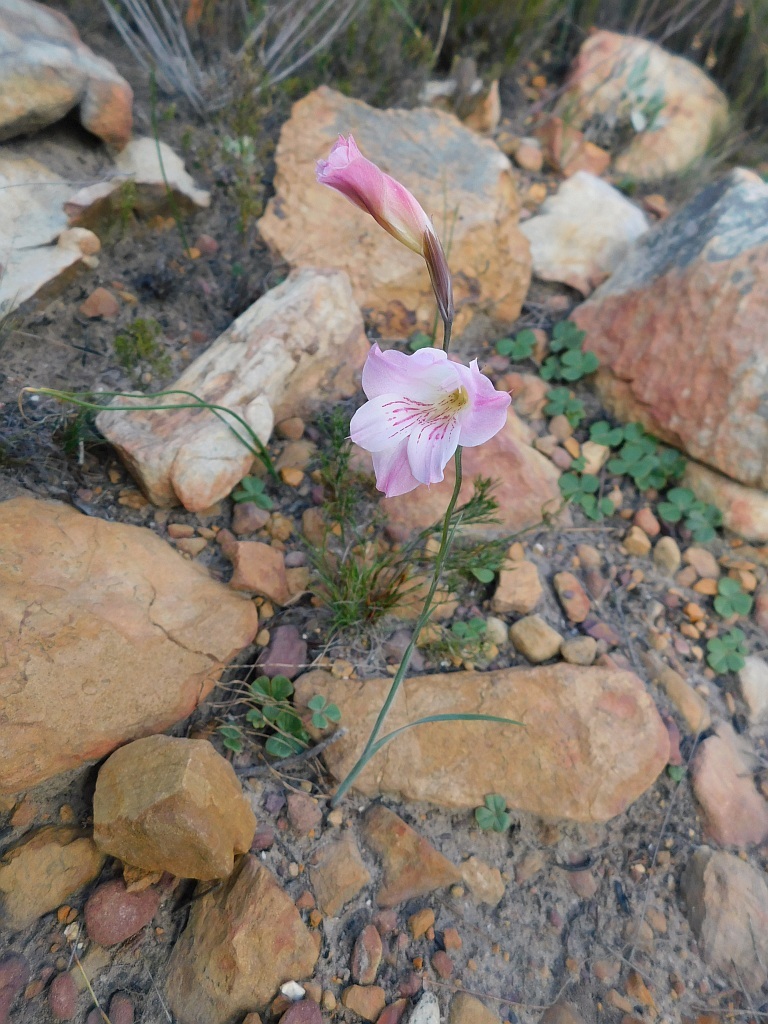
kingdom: Plantae
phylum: Tracheophyta
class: Liliopsida
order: Asparagales
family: Iridaceae
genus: Gladiolus
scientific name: Gladiolus hirsutus
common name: Small pink afrikaner
